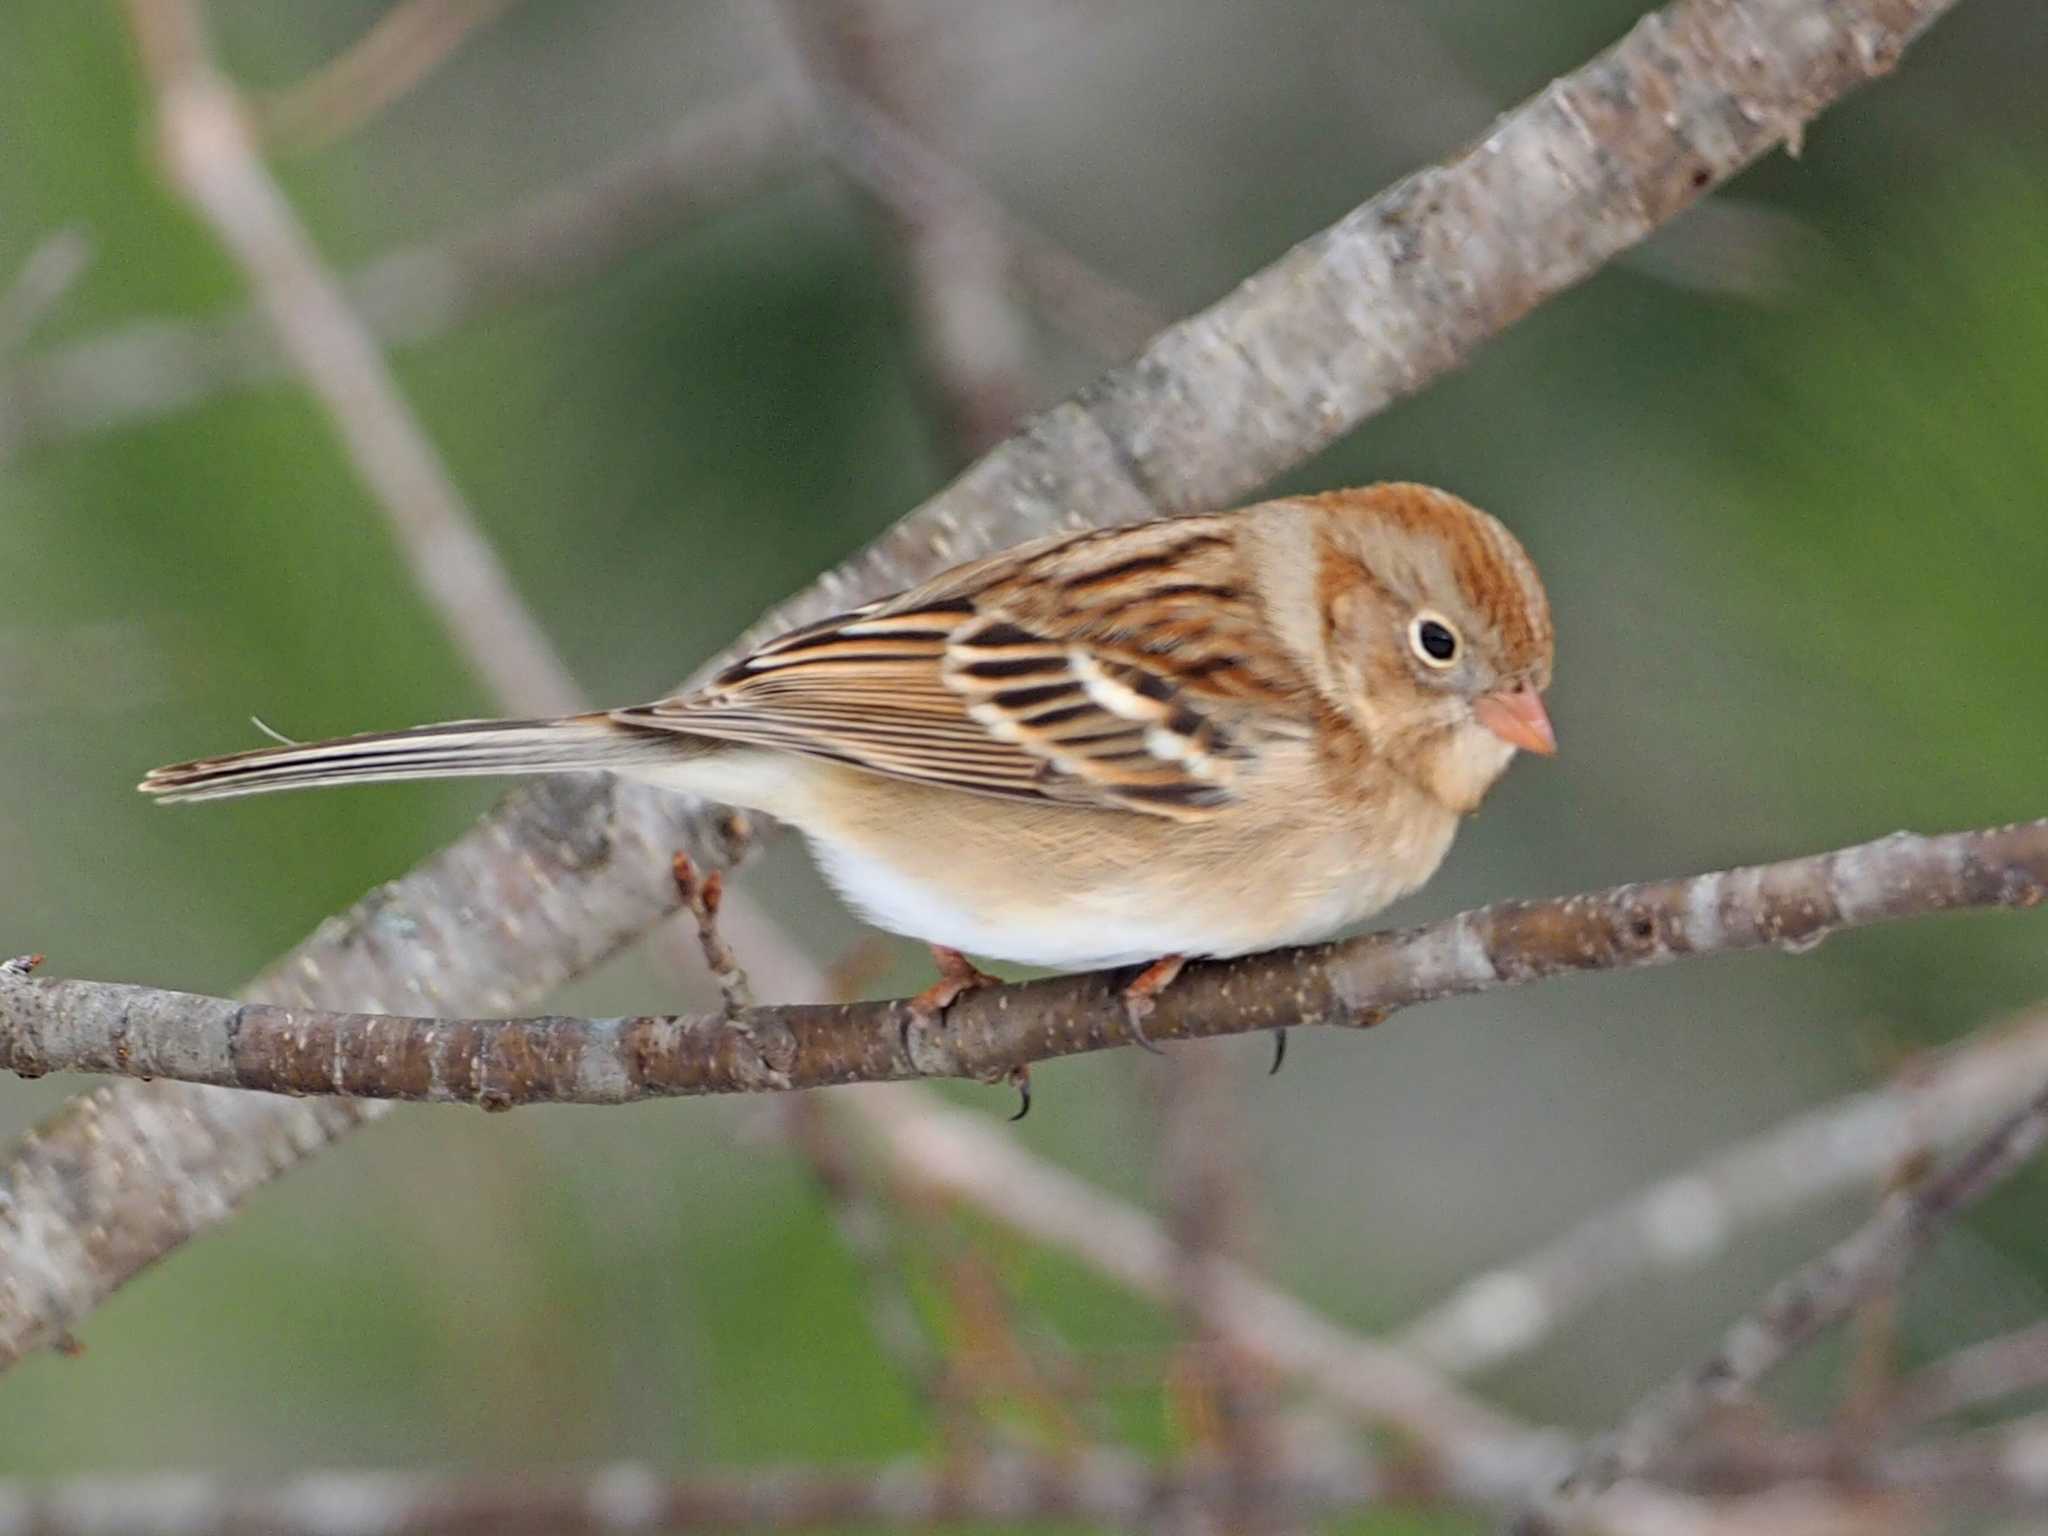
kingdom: Animalia
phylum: Chordata
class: Aves
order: Passeriformes
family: Passerellidae
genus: Spizella
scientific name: Spizella pusilla
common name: Field sparrow
